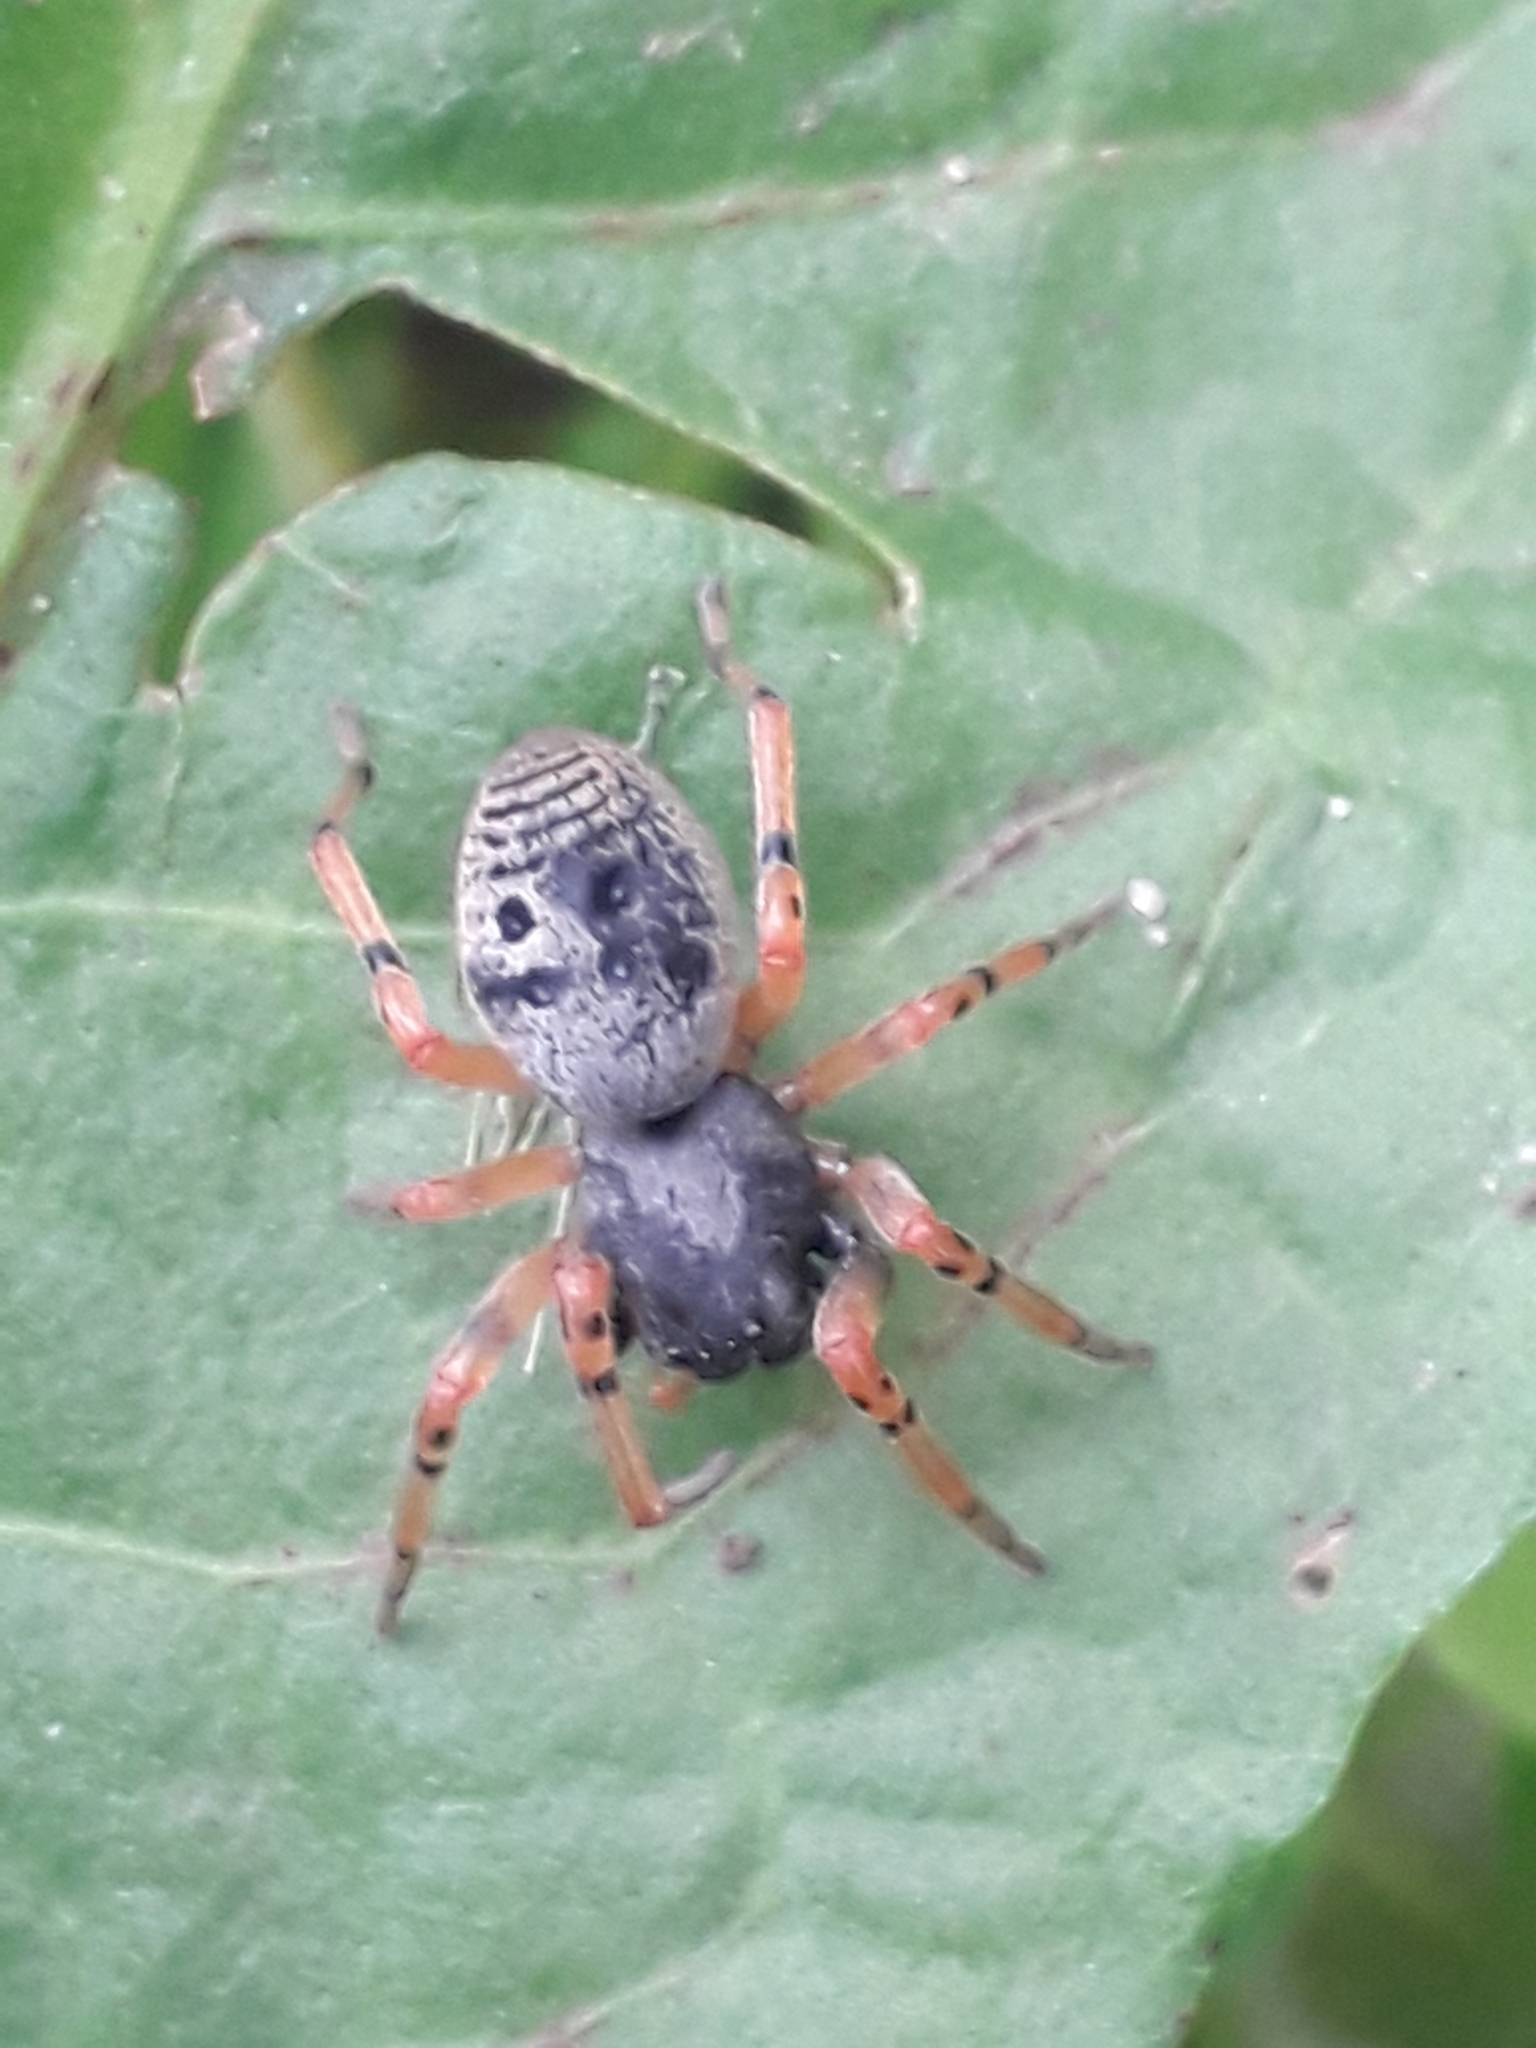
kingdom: Animalia
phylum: Arthropoda
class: Arachnida
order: Araneae
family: Trachelidae
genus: Trachelopachys
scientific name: Trachelopachys
